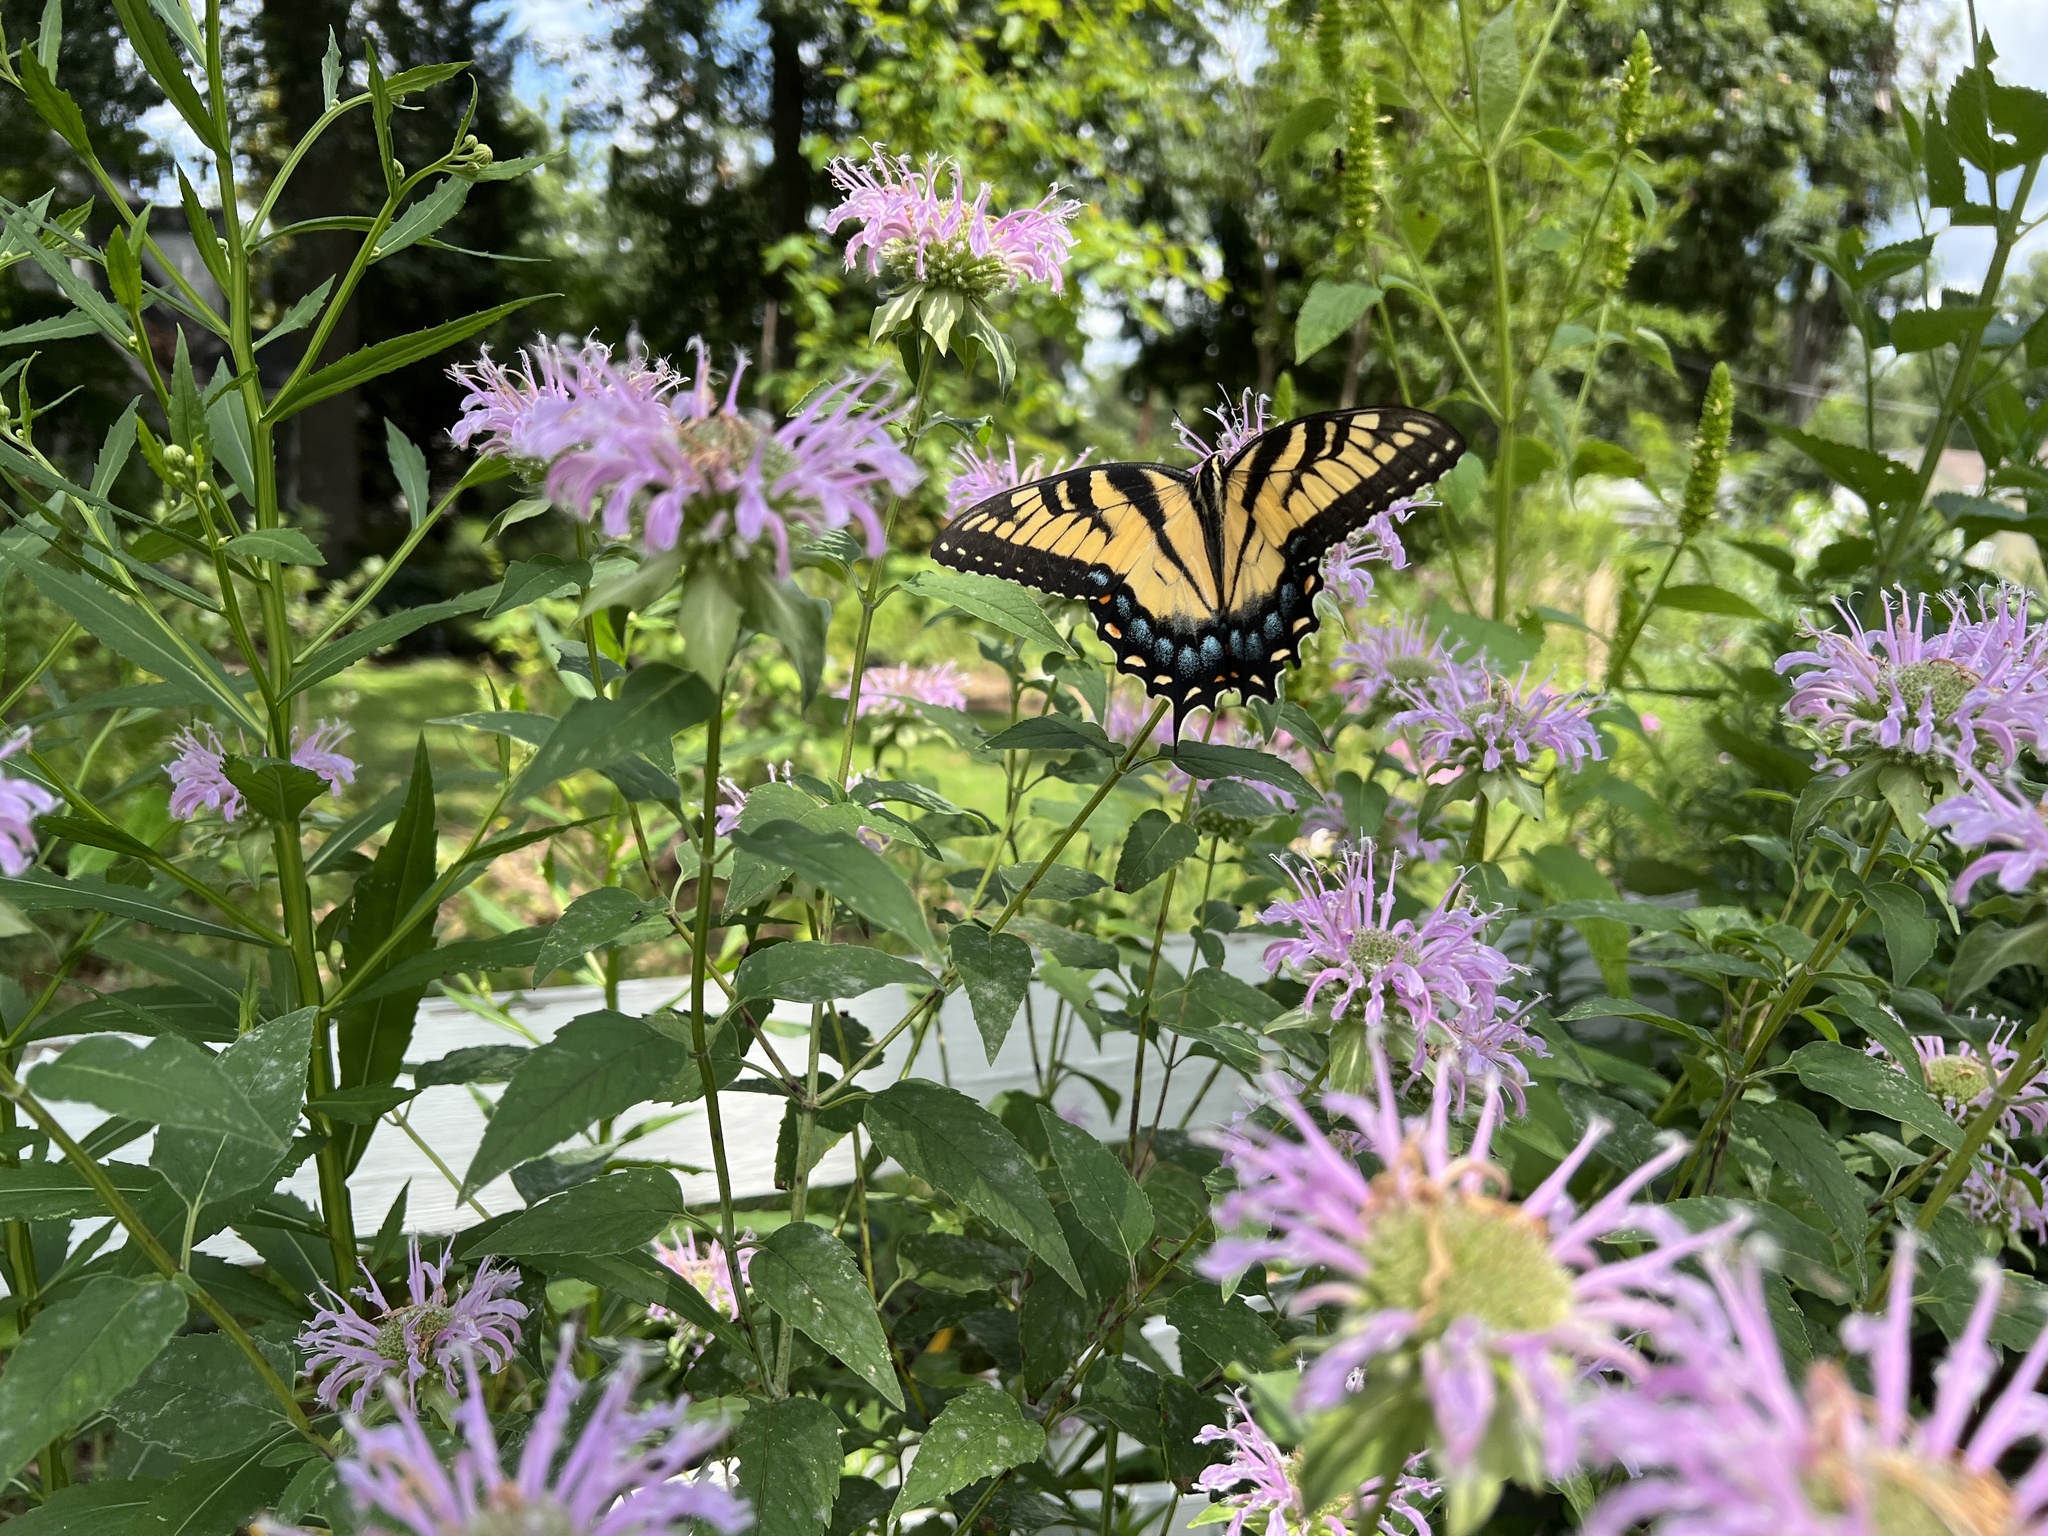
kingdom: Animalia
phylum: Arthropoda
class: Insecta
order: Lepidoptera
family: Papilionidae
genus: Papilio
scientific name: Papilio glaucus
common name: Tiger swallowtail
